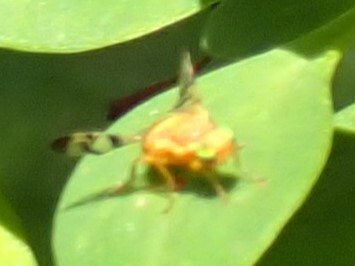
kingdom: Animalia
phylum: Arthropoda
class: Insecta
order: Diptera
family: Tephritidae
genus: Rhagoletis
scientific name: Rhagoletis meigenii
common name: Fruit fly
